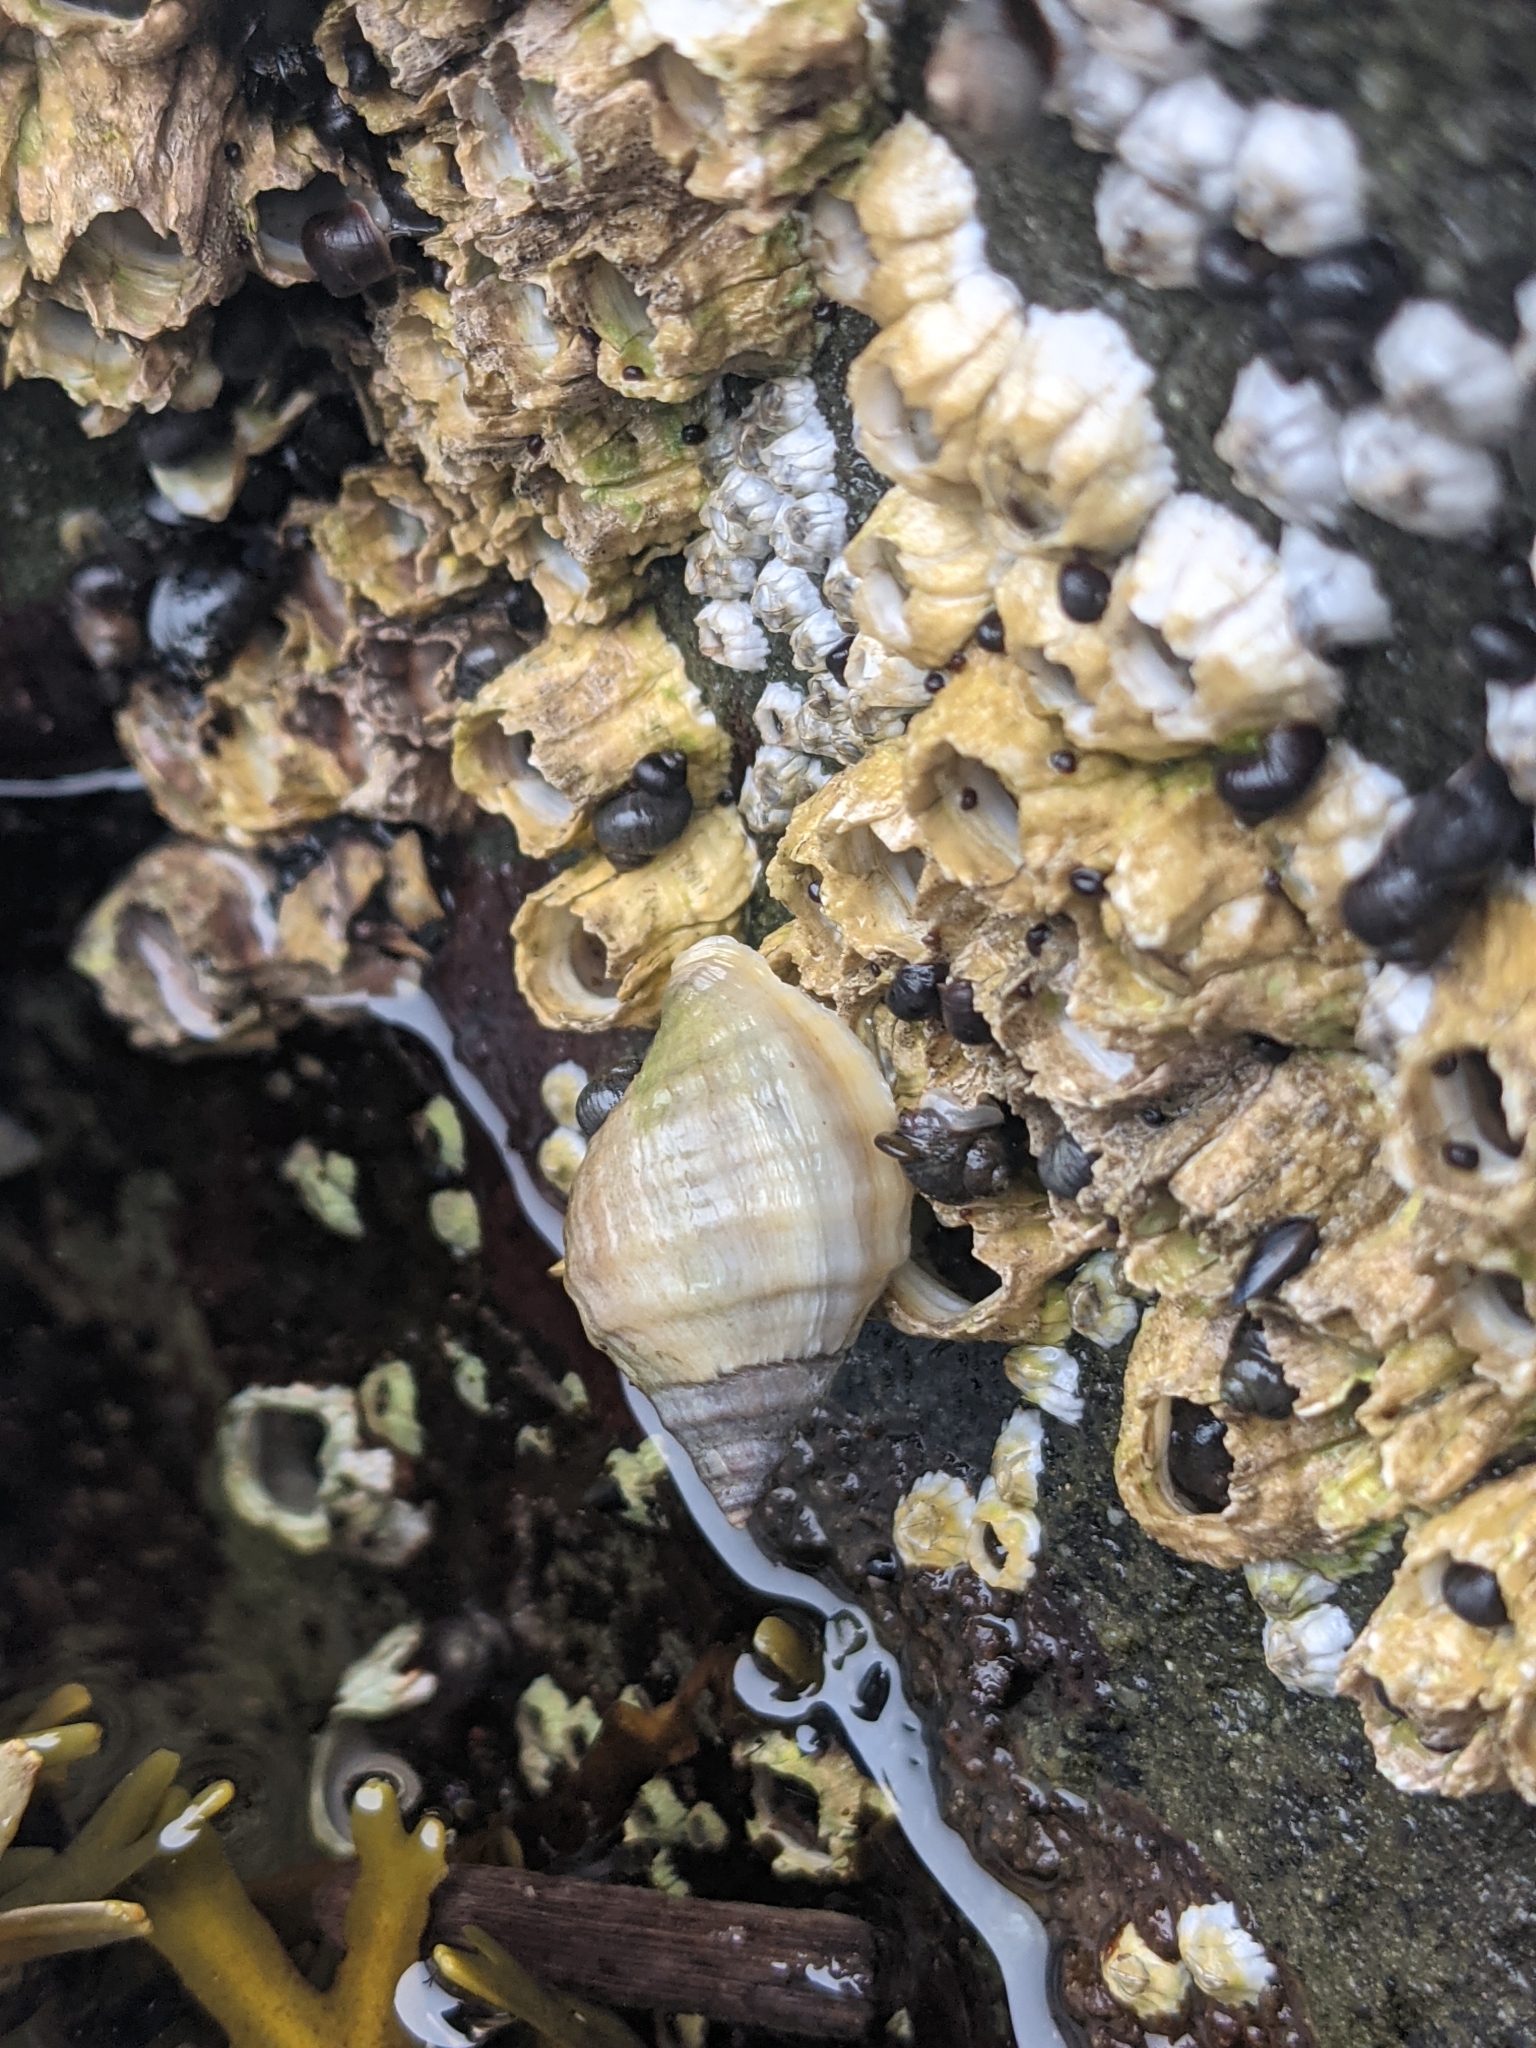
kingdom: Animalia
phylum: Mollusca
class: Gastropoda
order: Neogastropoda
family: Muricidae
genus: Nucella
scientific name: Nucella lapillus
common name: Dog whelk
